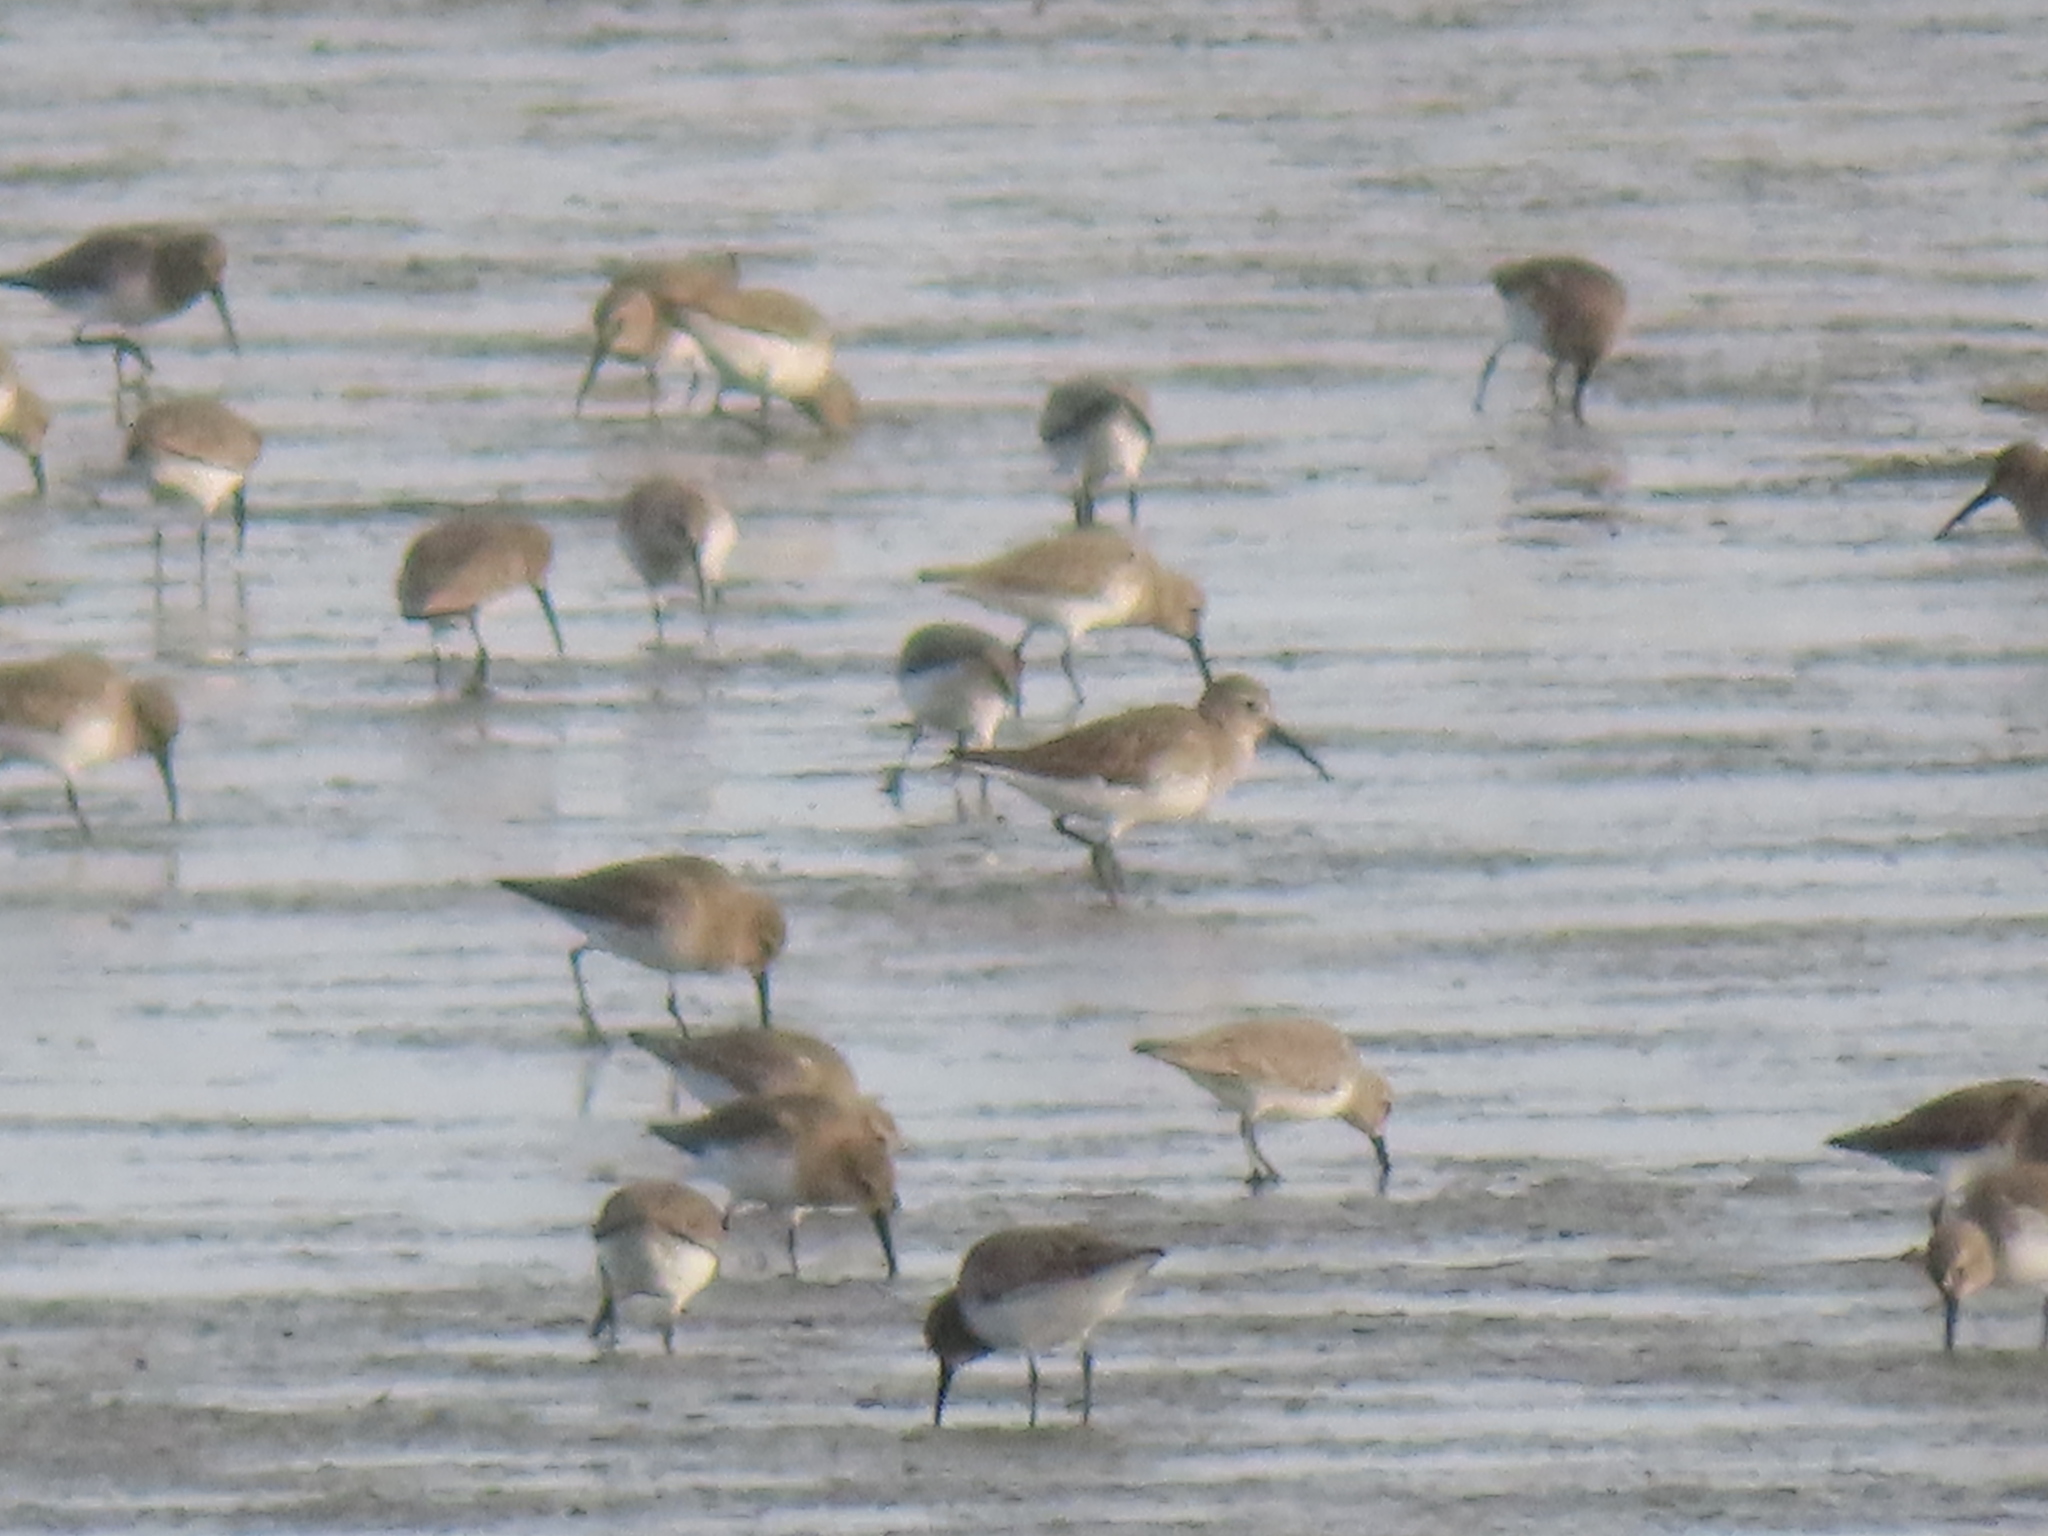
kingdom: Animalia
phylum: Chordata
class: Aves
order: Charadriiformes
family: Scolopacidae
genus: Calidris
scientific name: Calidris alpina
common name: Dunlin
